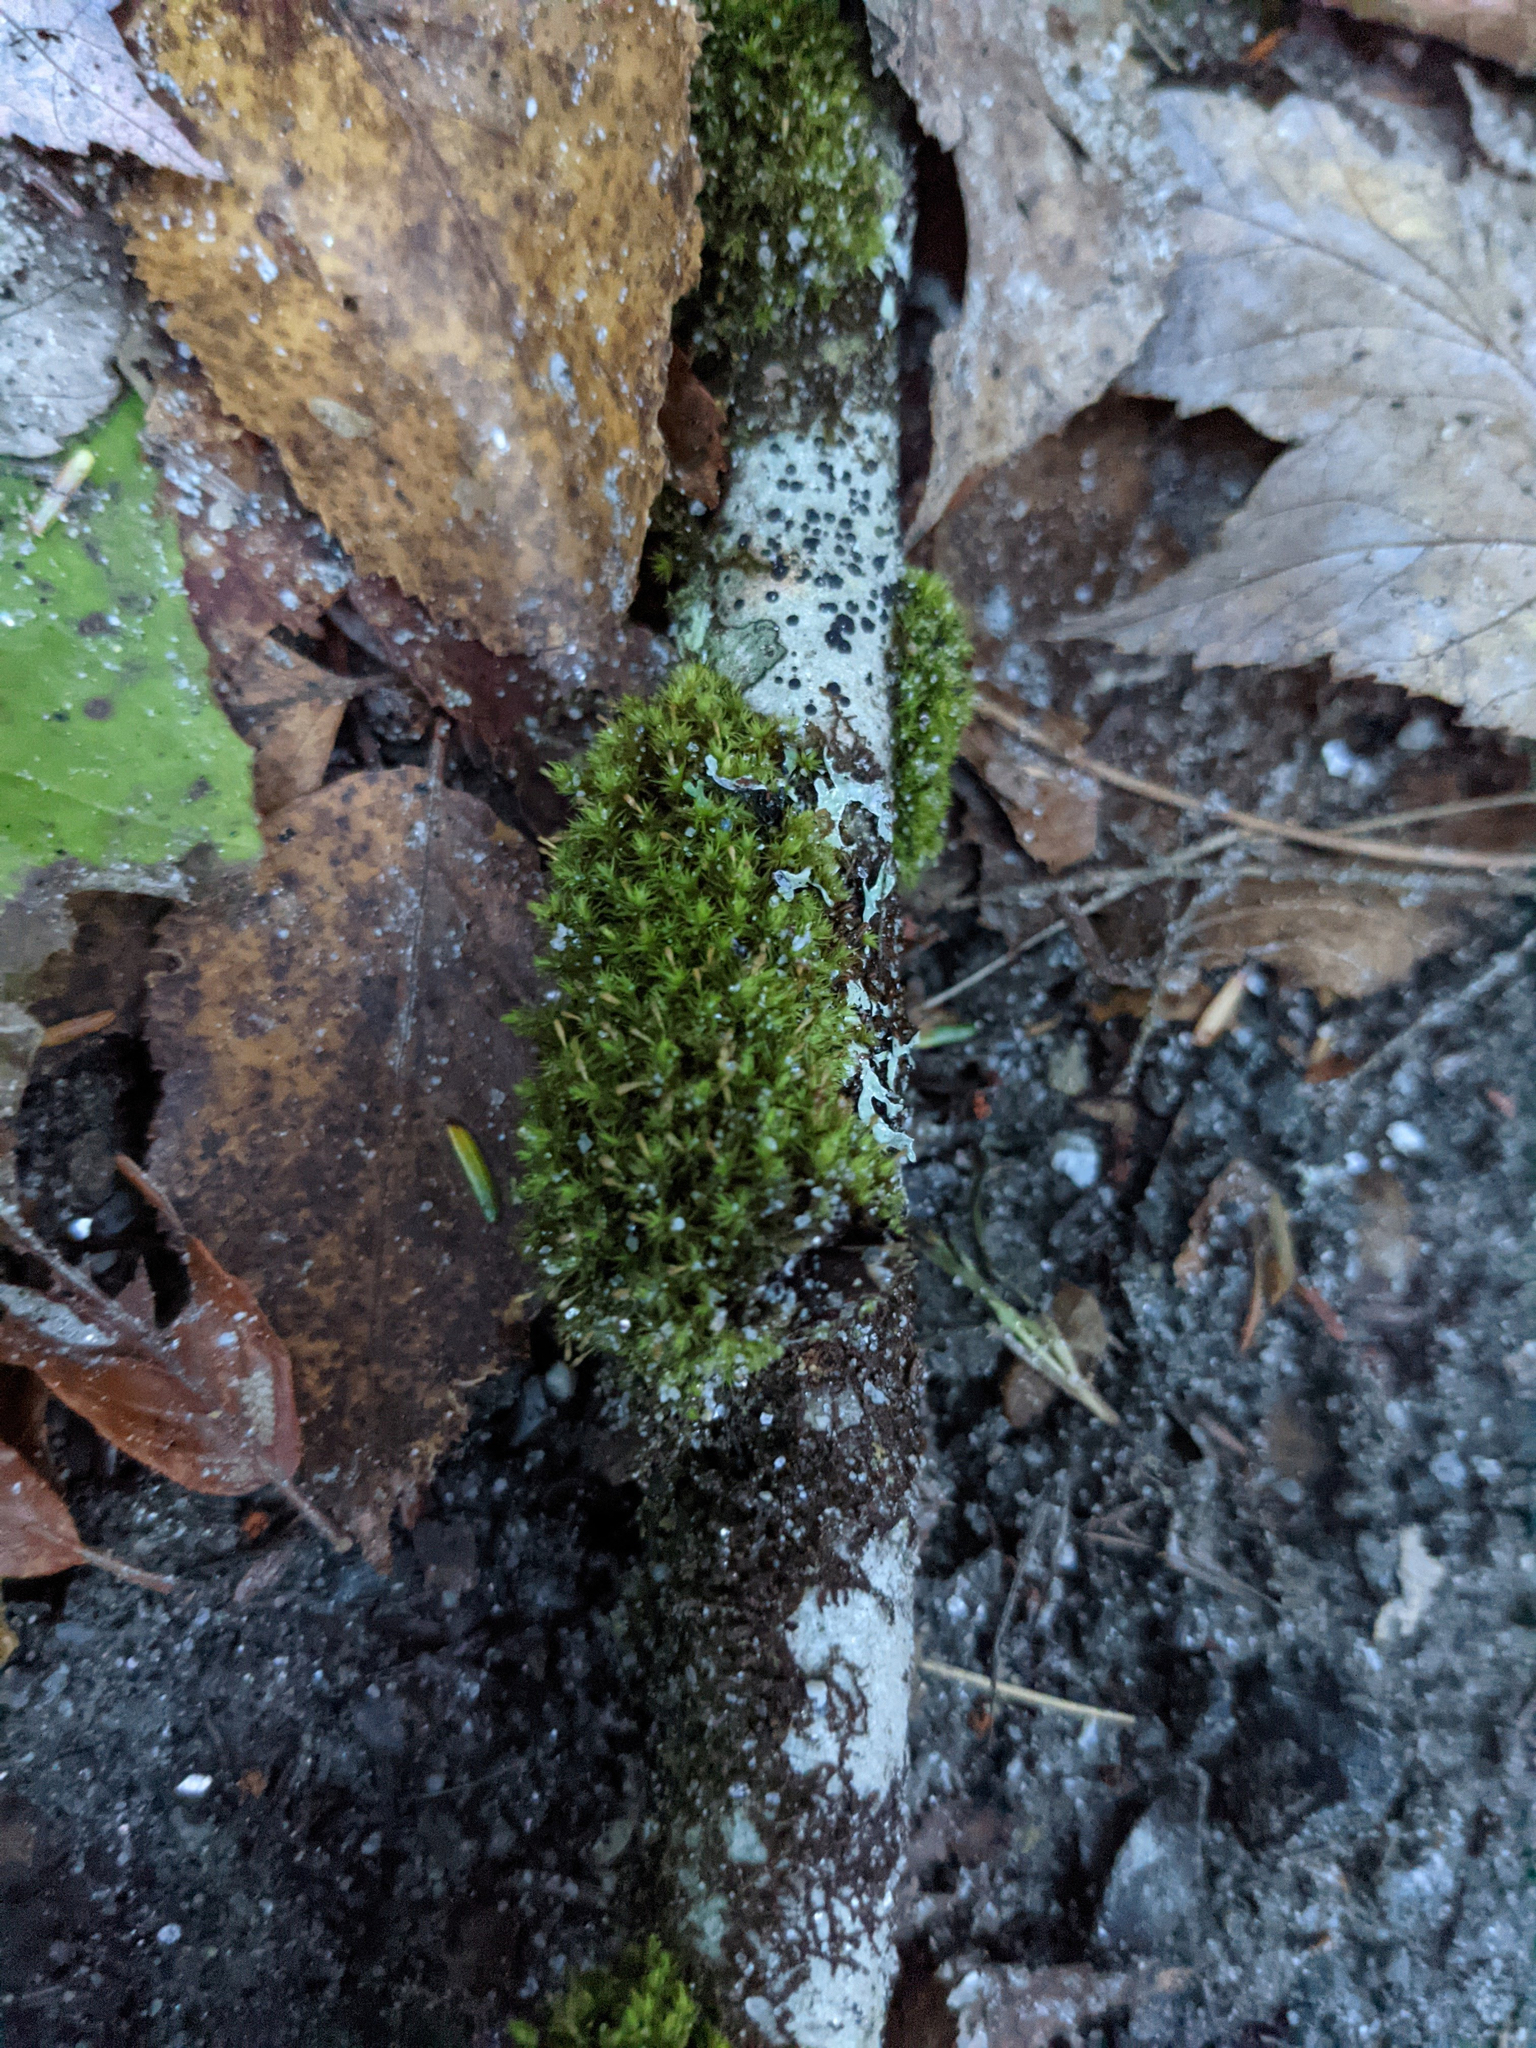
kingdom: Plantae
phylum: Bryophyta
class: Bryopsida
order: Orthotrichales
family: Orthotrichaceae
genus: Ulota
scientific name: Ulota crispa
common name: Crisped pincushion moss
